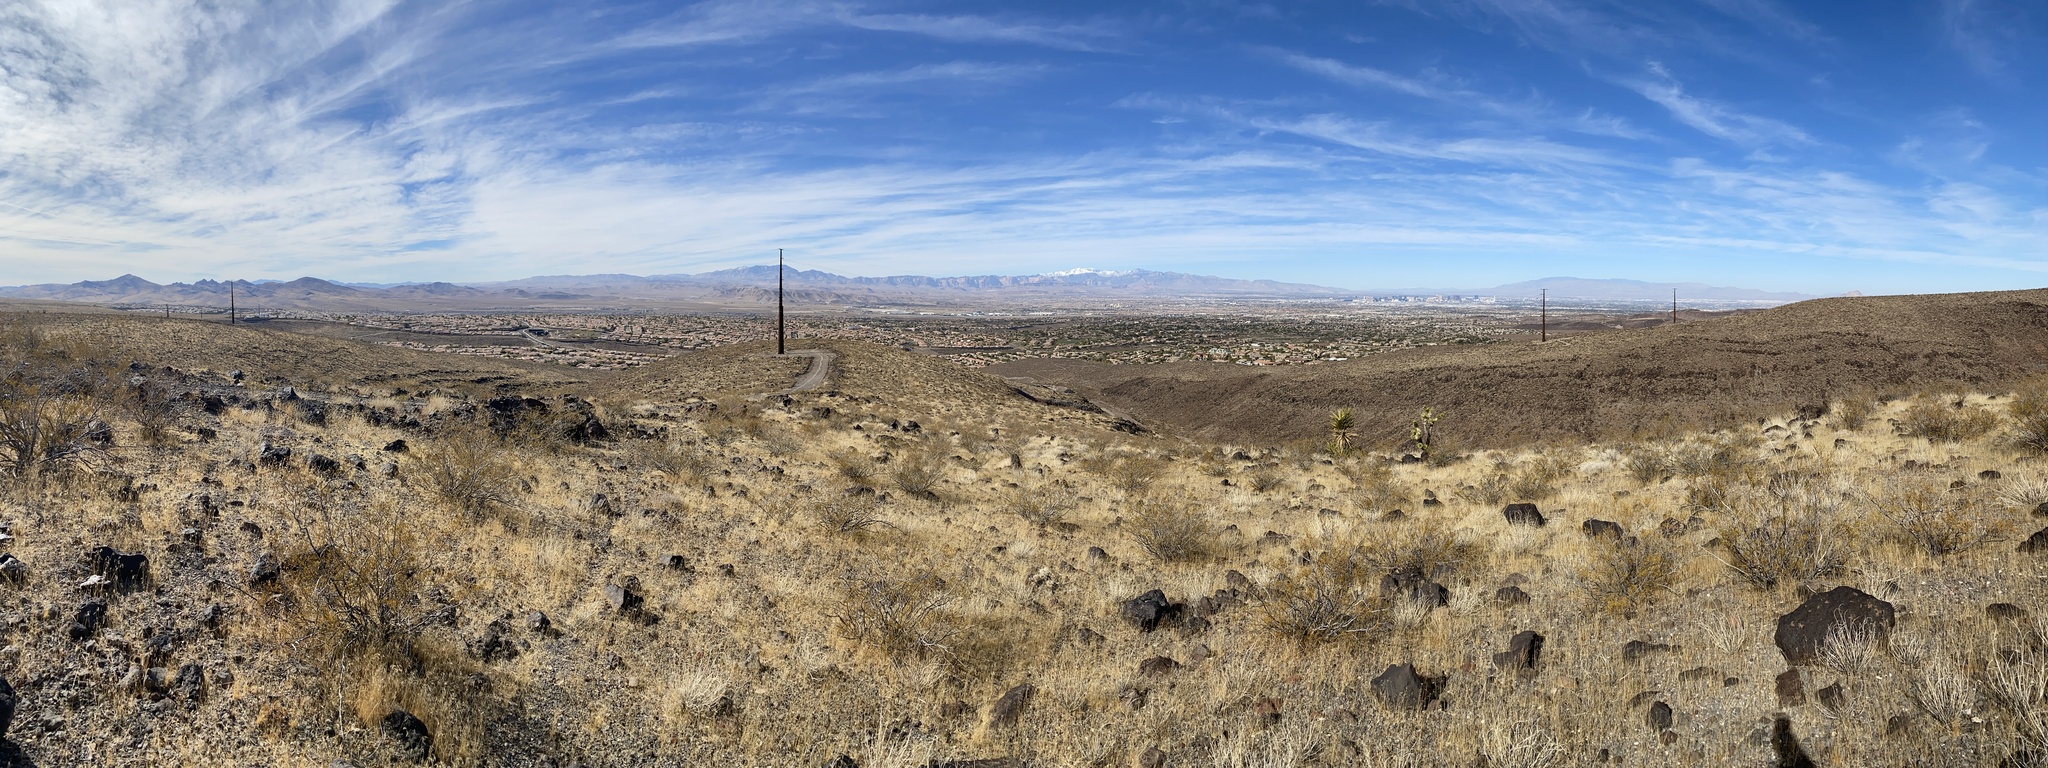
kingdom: Plantae
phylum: Tracheophyta
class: Magnoliopsida
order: Zygophyllales
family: Zygophyllaceae
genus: Larrea
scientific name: Larrea tridentata
